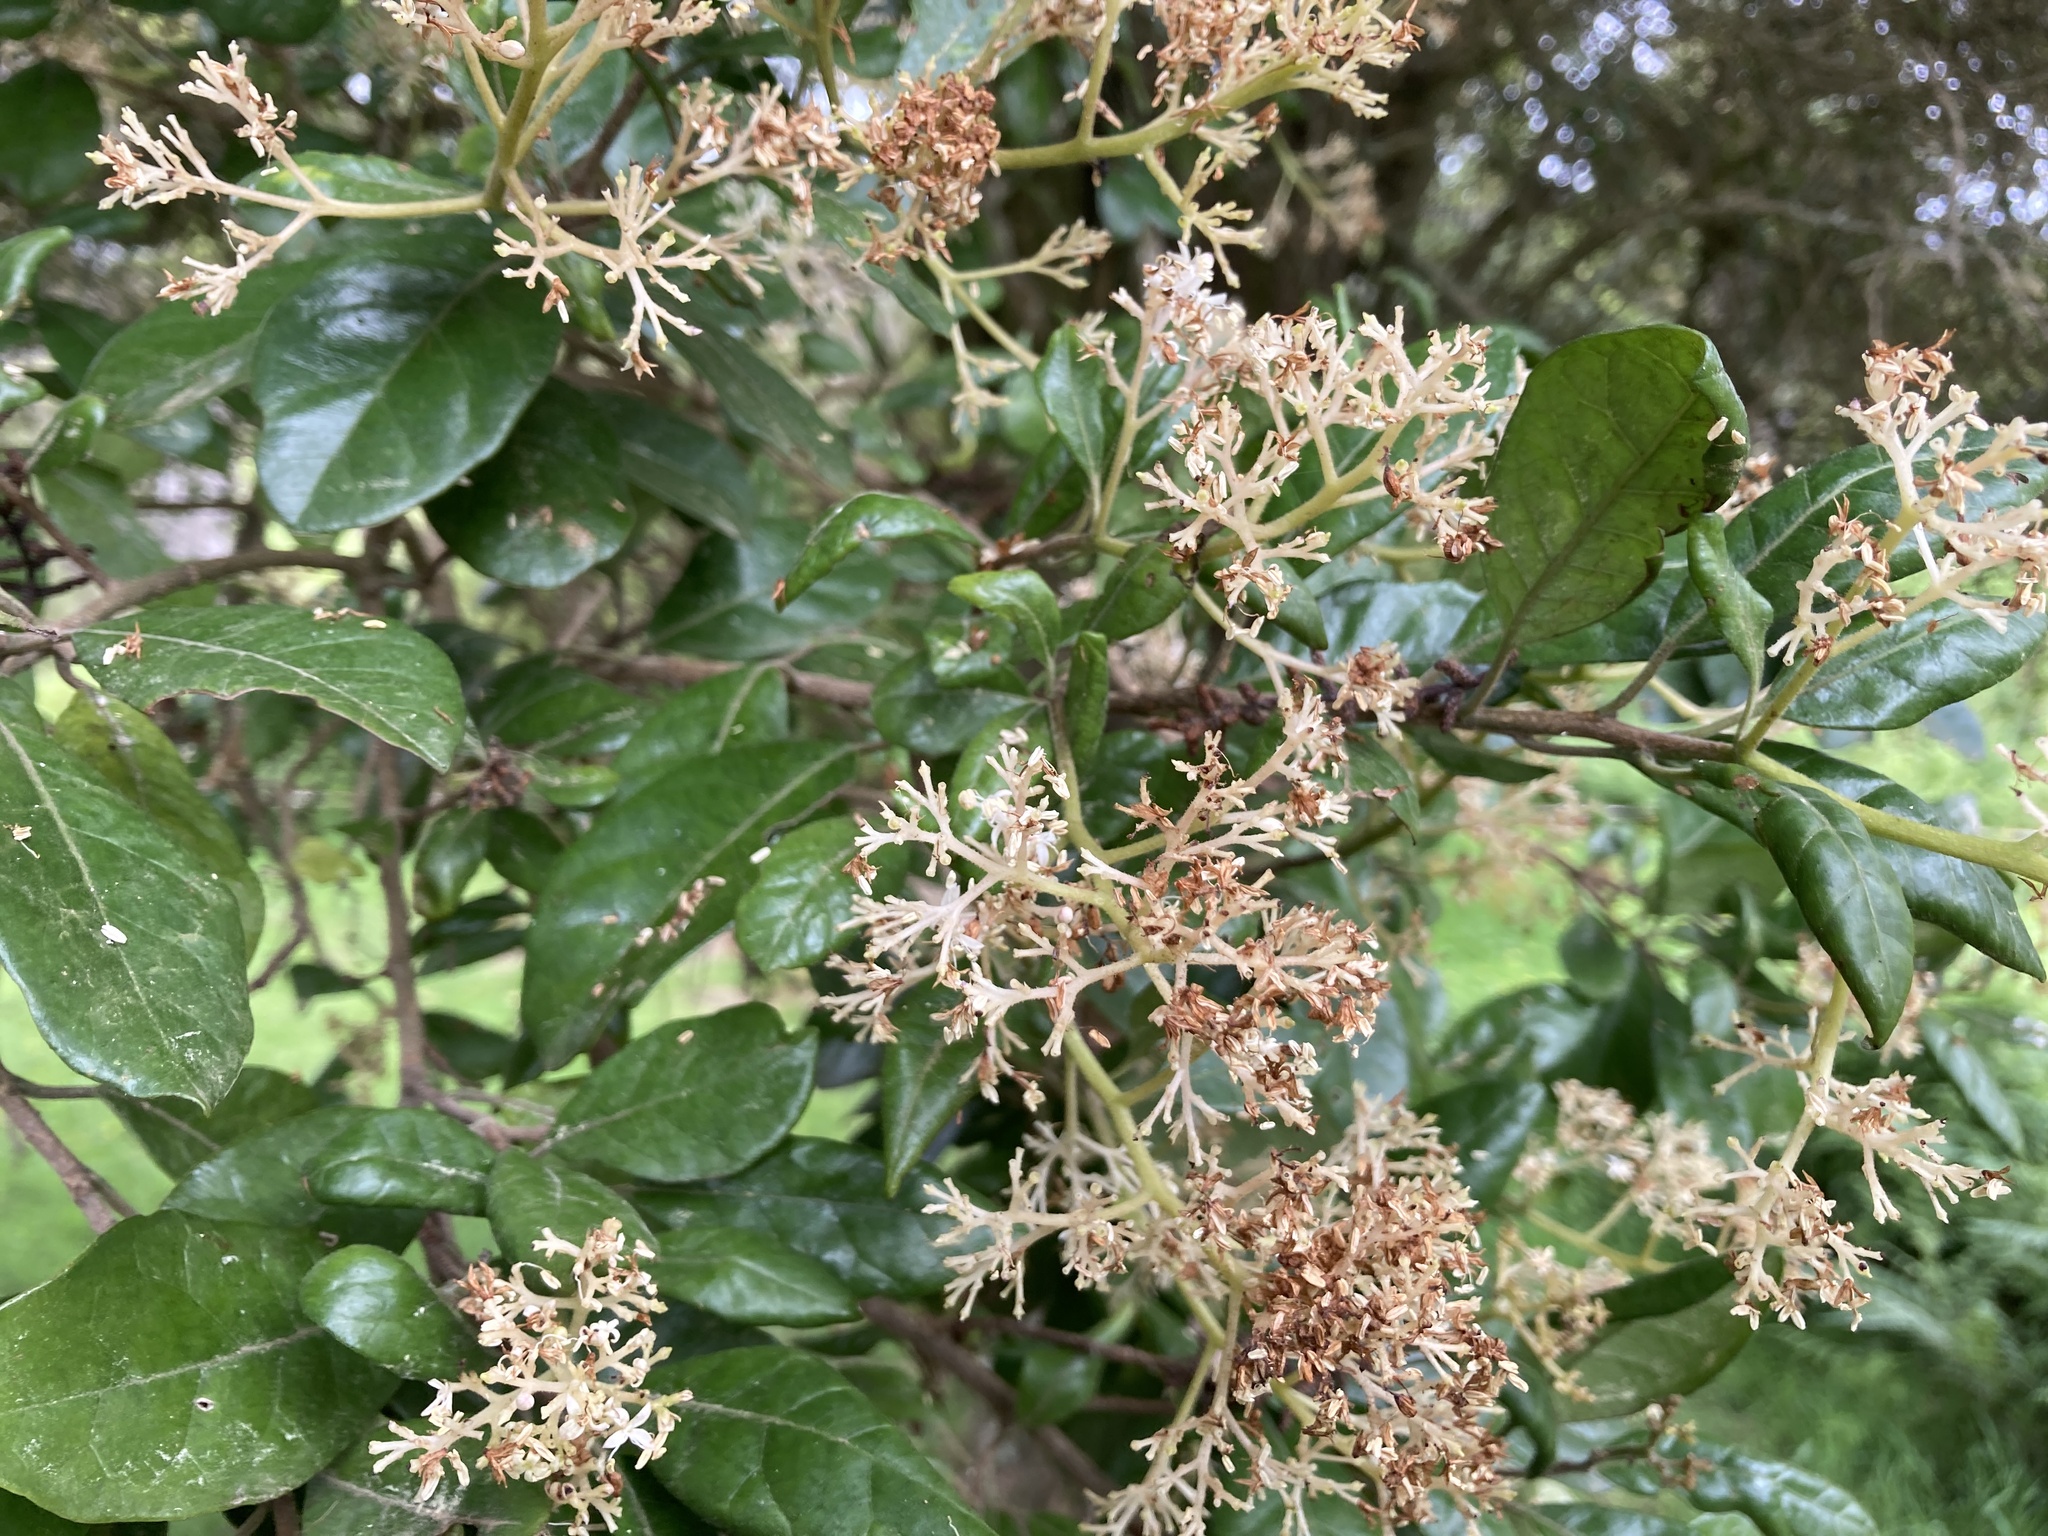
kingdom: Plantae
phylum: Tracheophyta
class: Magnoliopsida
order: Apiales
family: Pennantiaceae
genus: Pennantia
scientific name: Pennantia corymbosa
